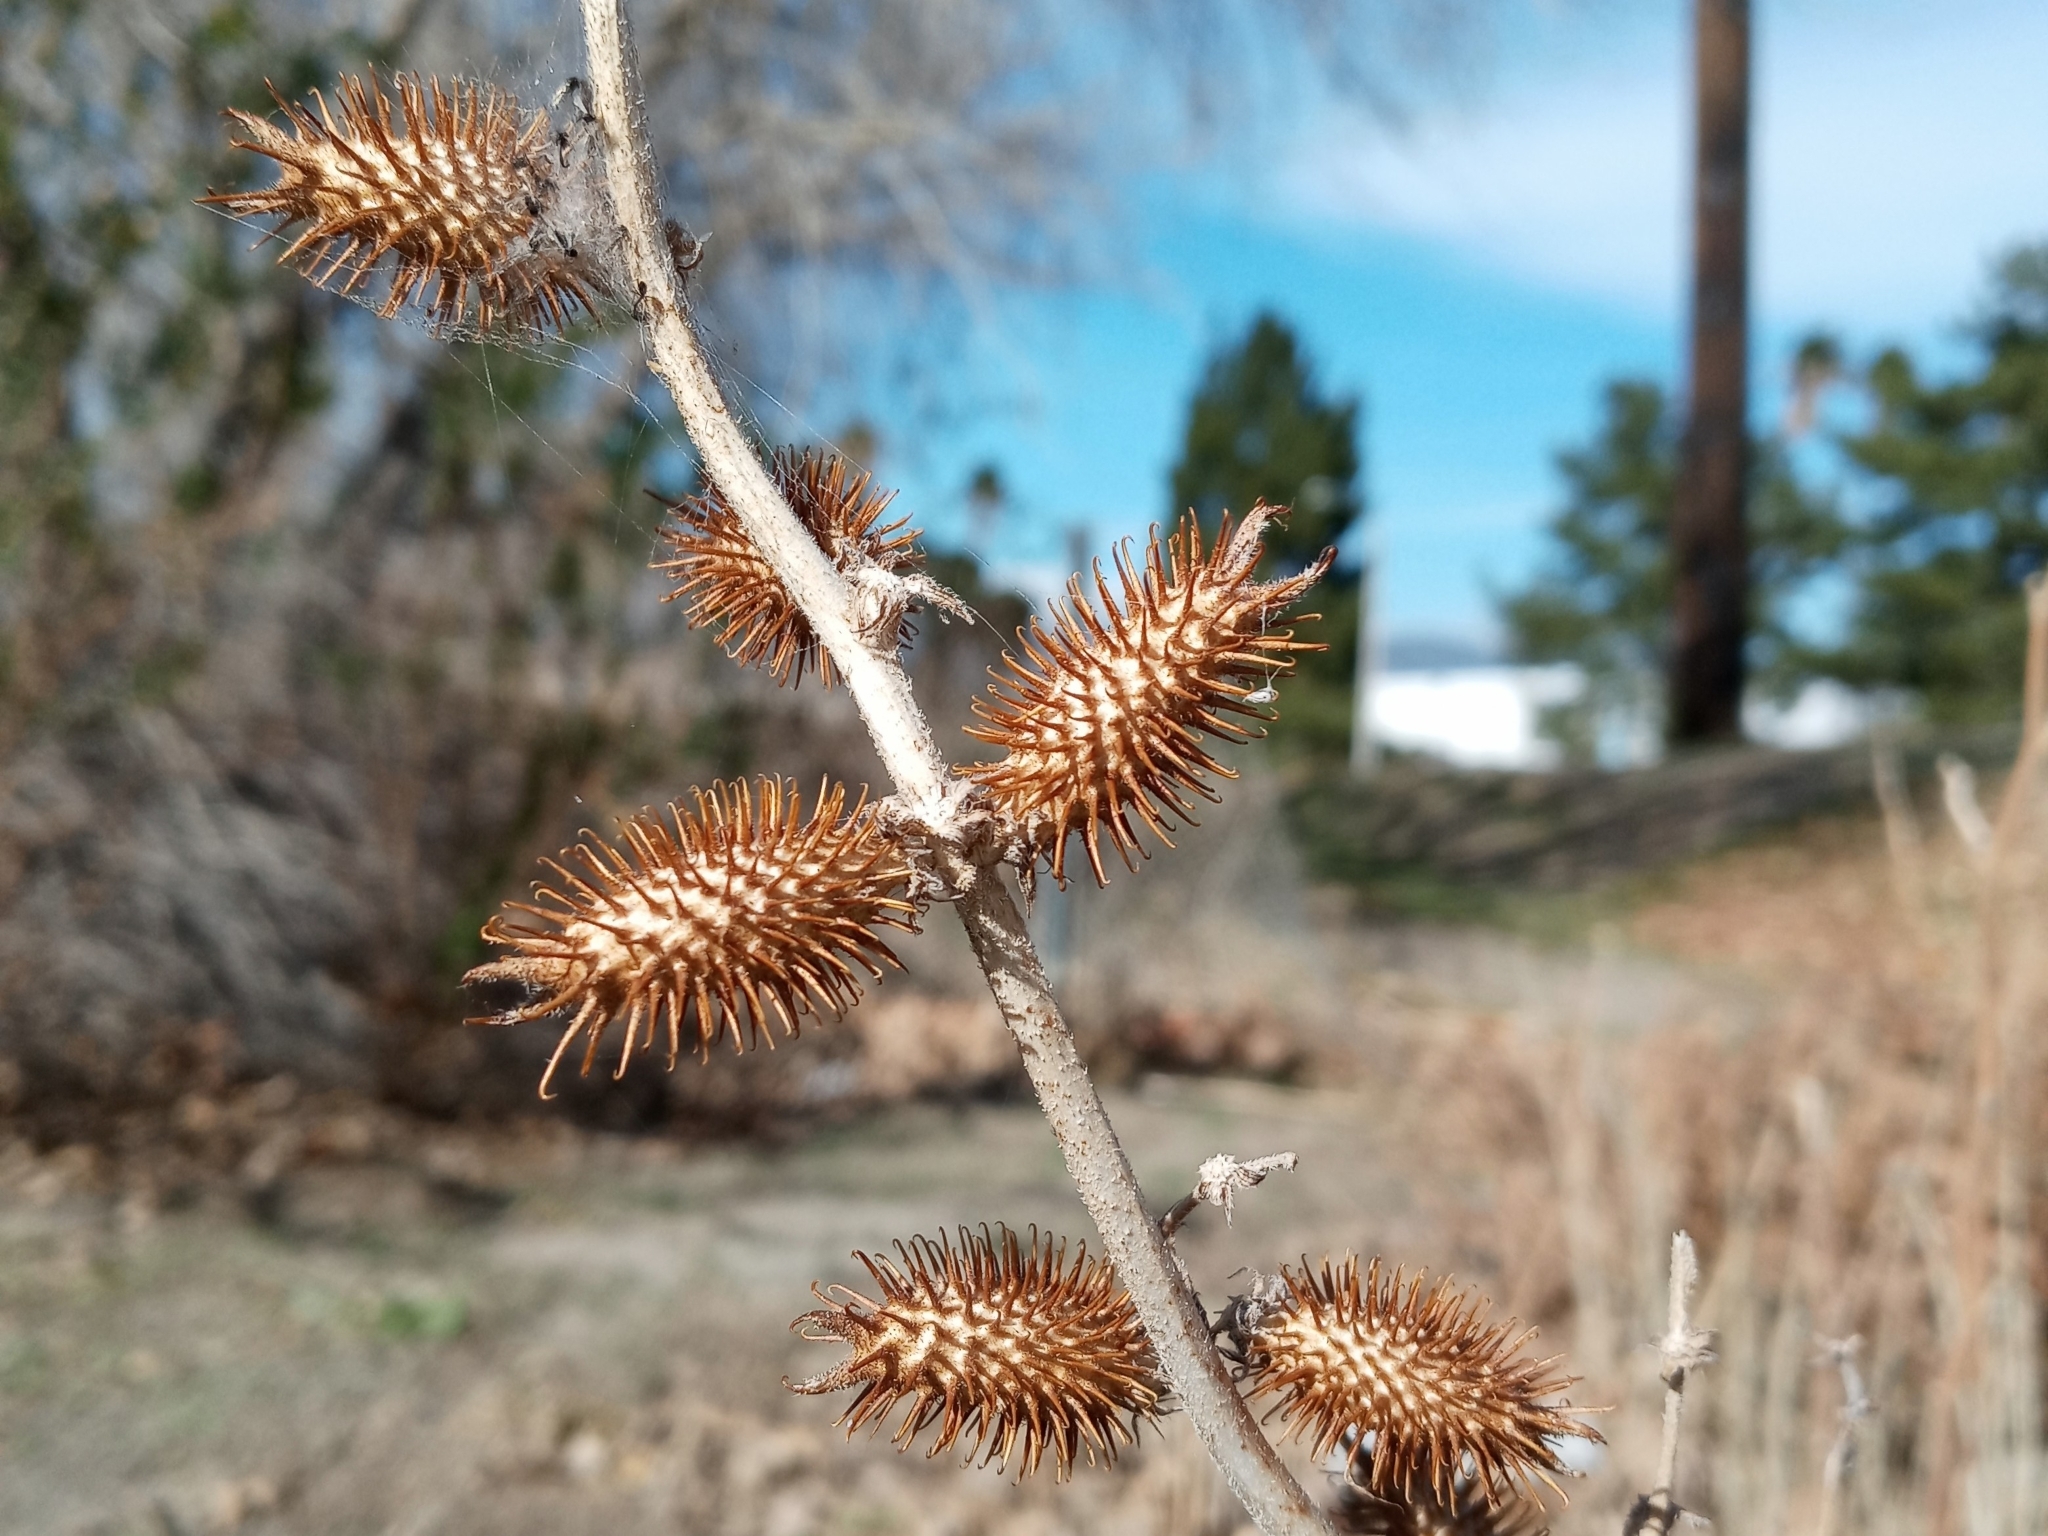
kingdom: Plantae
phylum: Tracheophyta
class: Magnoliopsida
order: Asterales
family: Asteraceae
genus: Xanthium
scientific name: Xanthium strumarium
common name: Rough cocklebur
